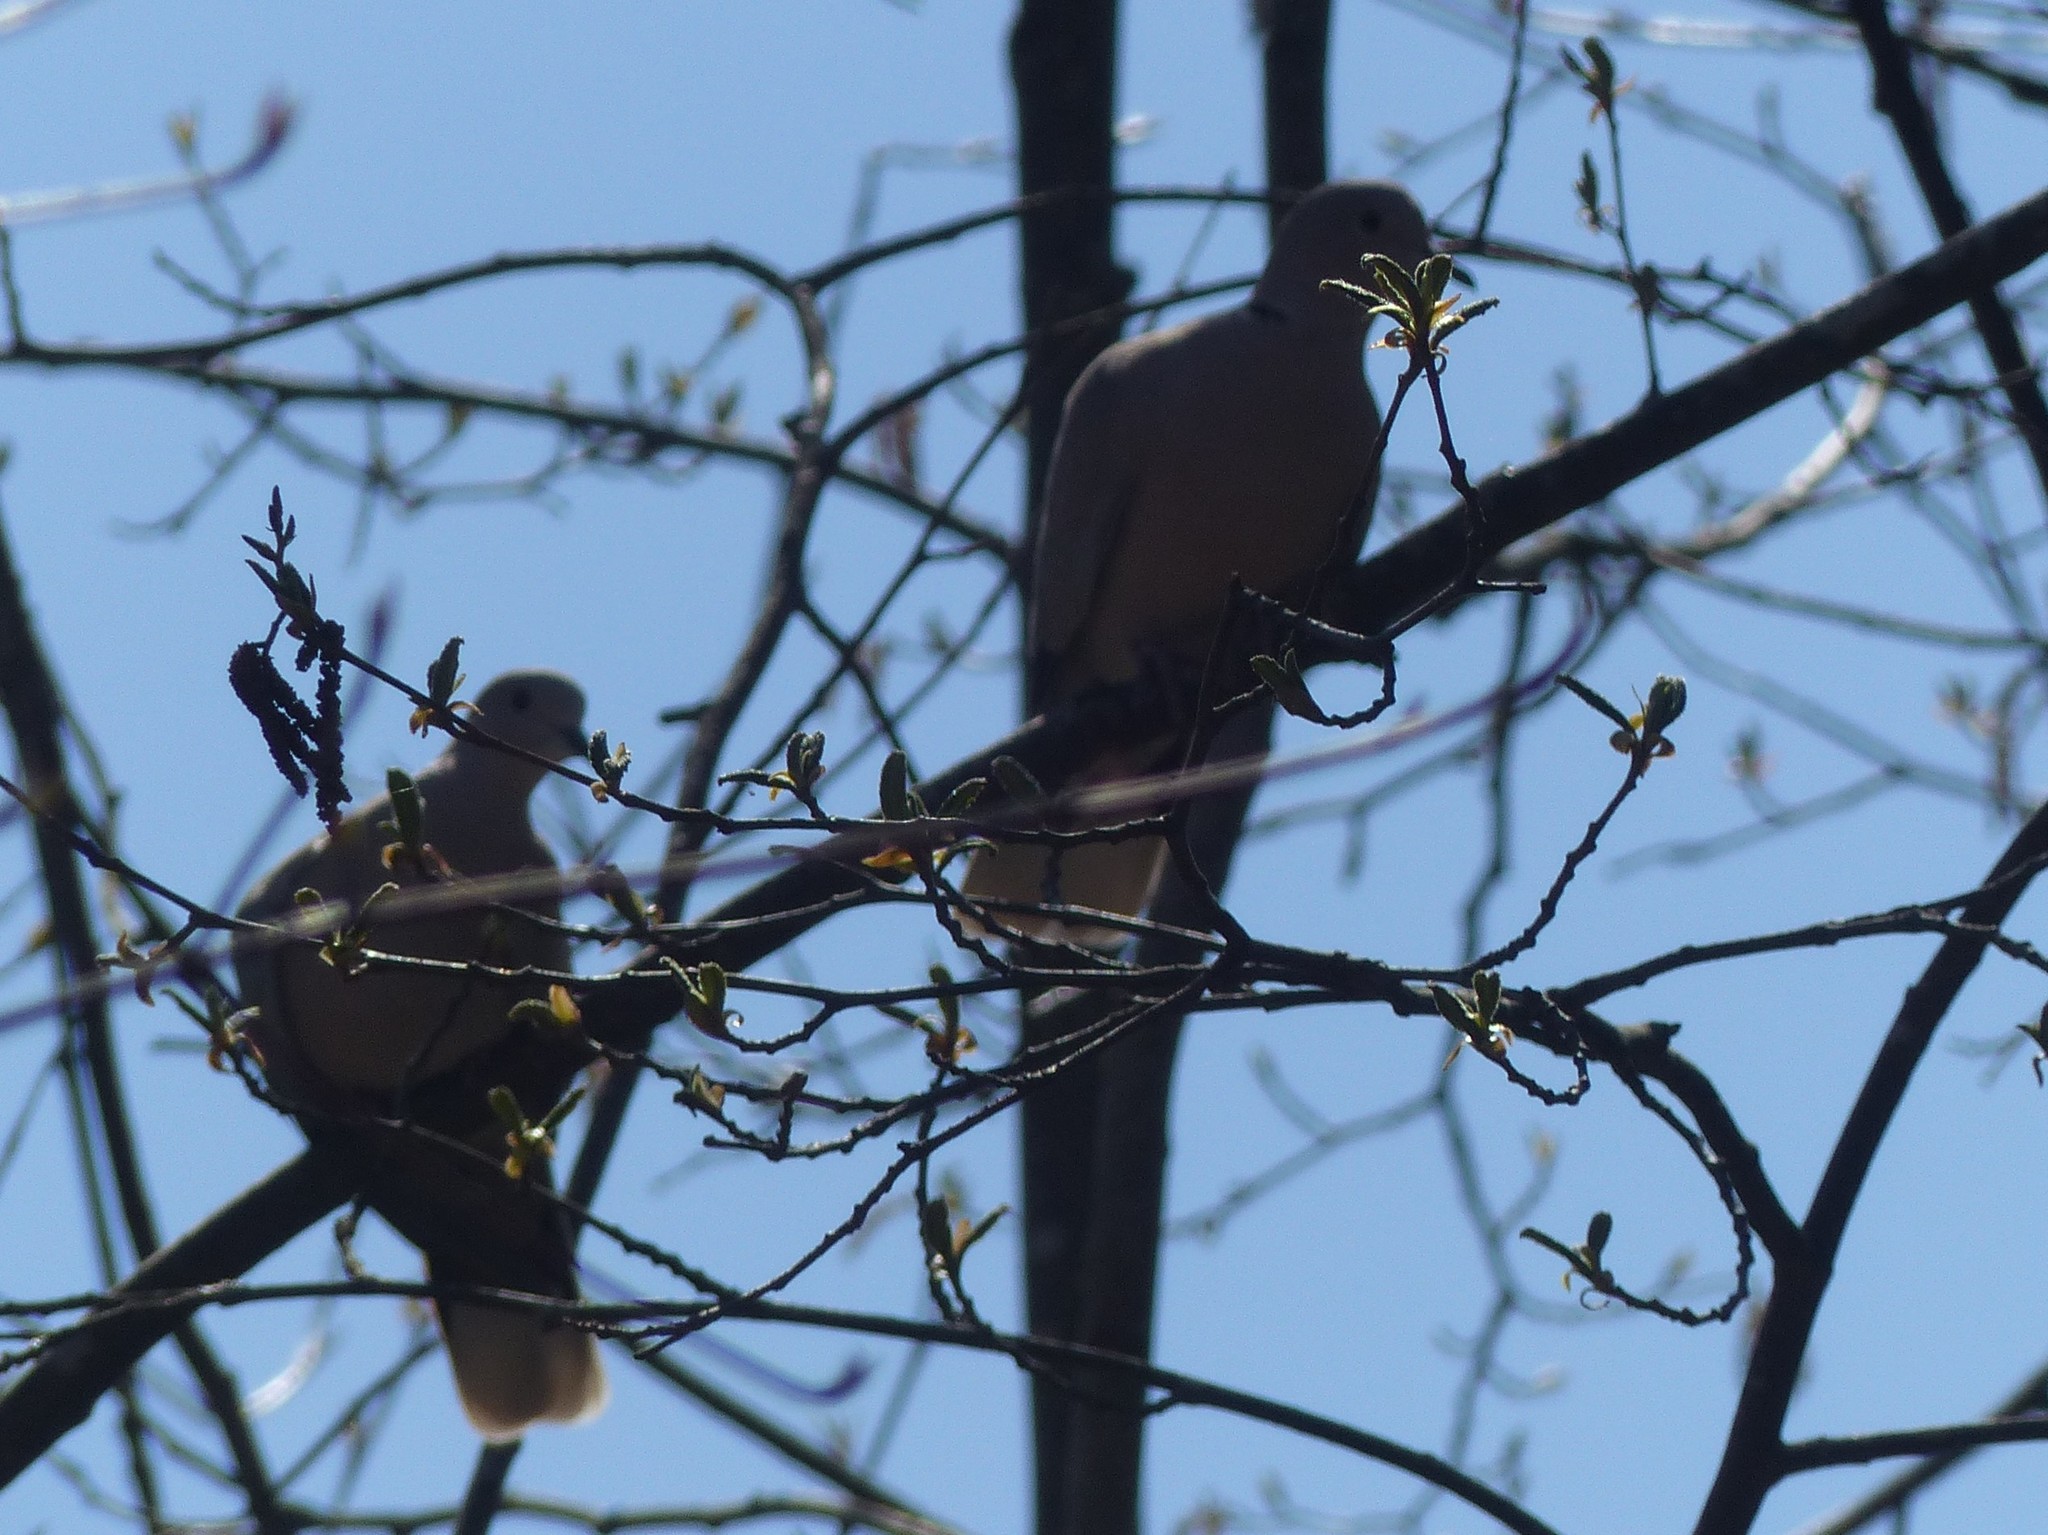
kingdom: Animalia
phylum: Chordata
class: Aves
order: Columbiformes
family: Columbidae
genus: Streptopelia
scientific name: Streptopelia decaocto
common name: Eurasian collared dove
